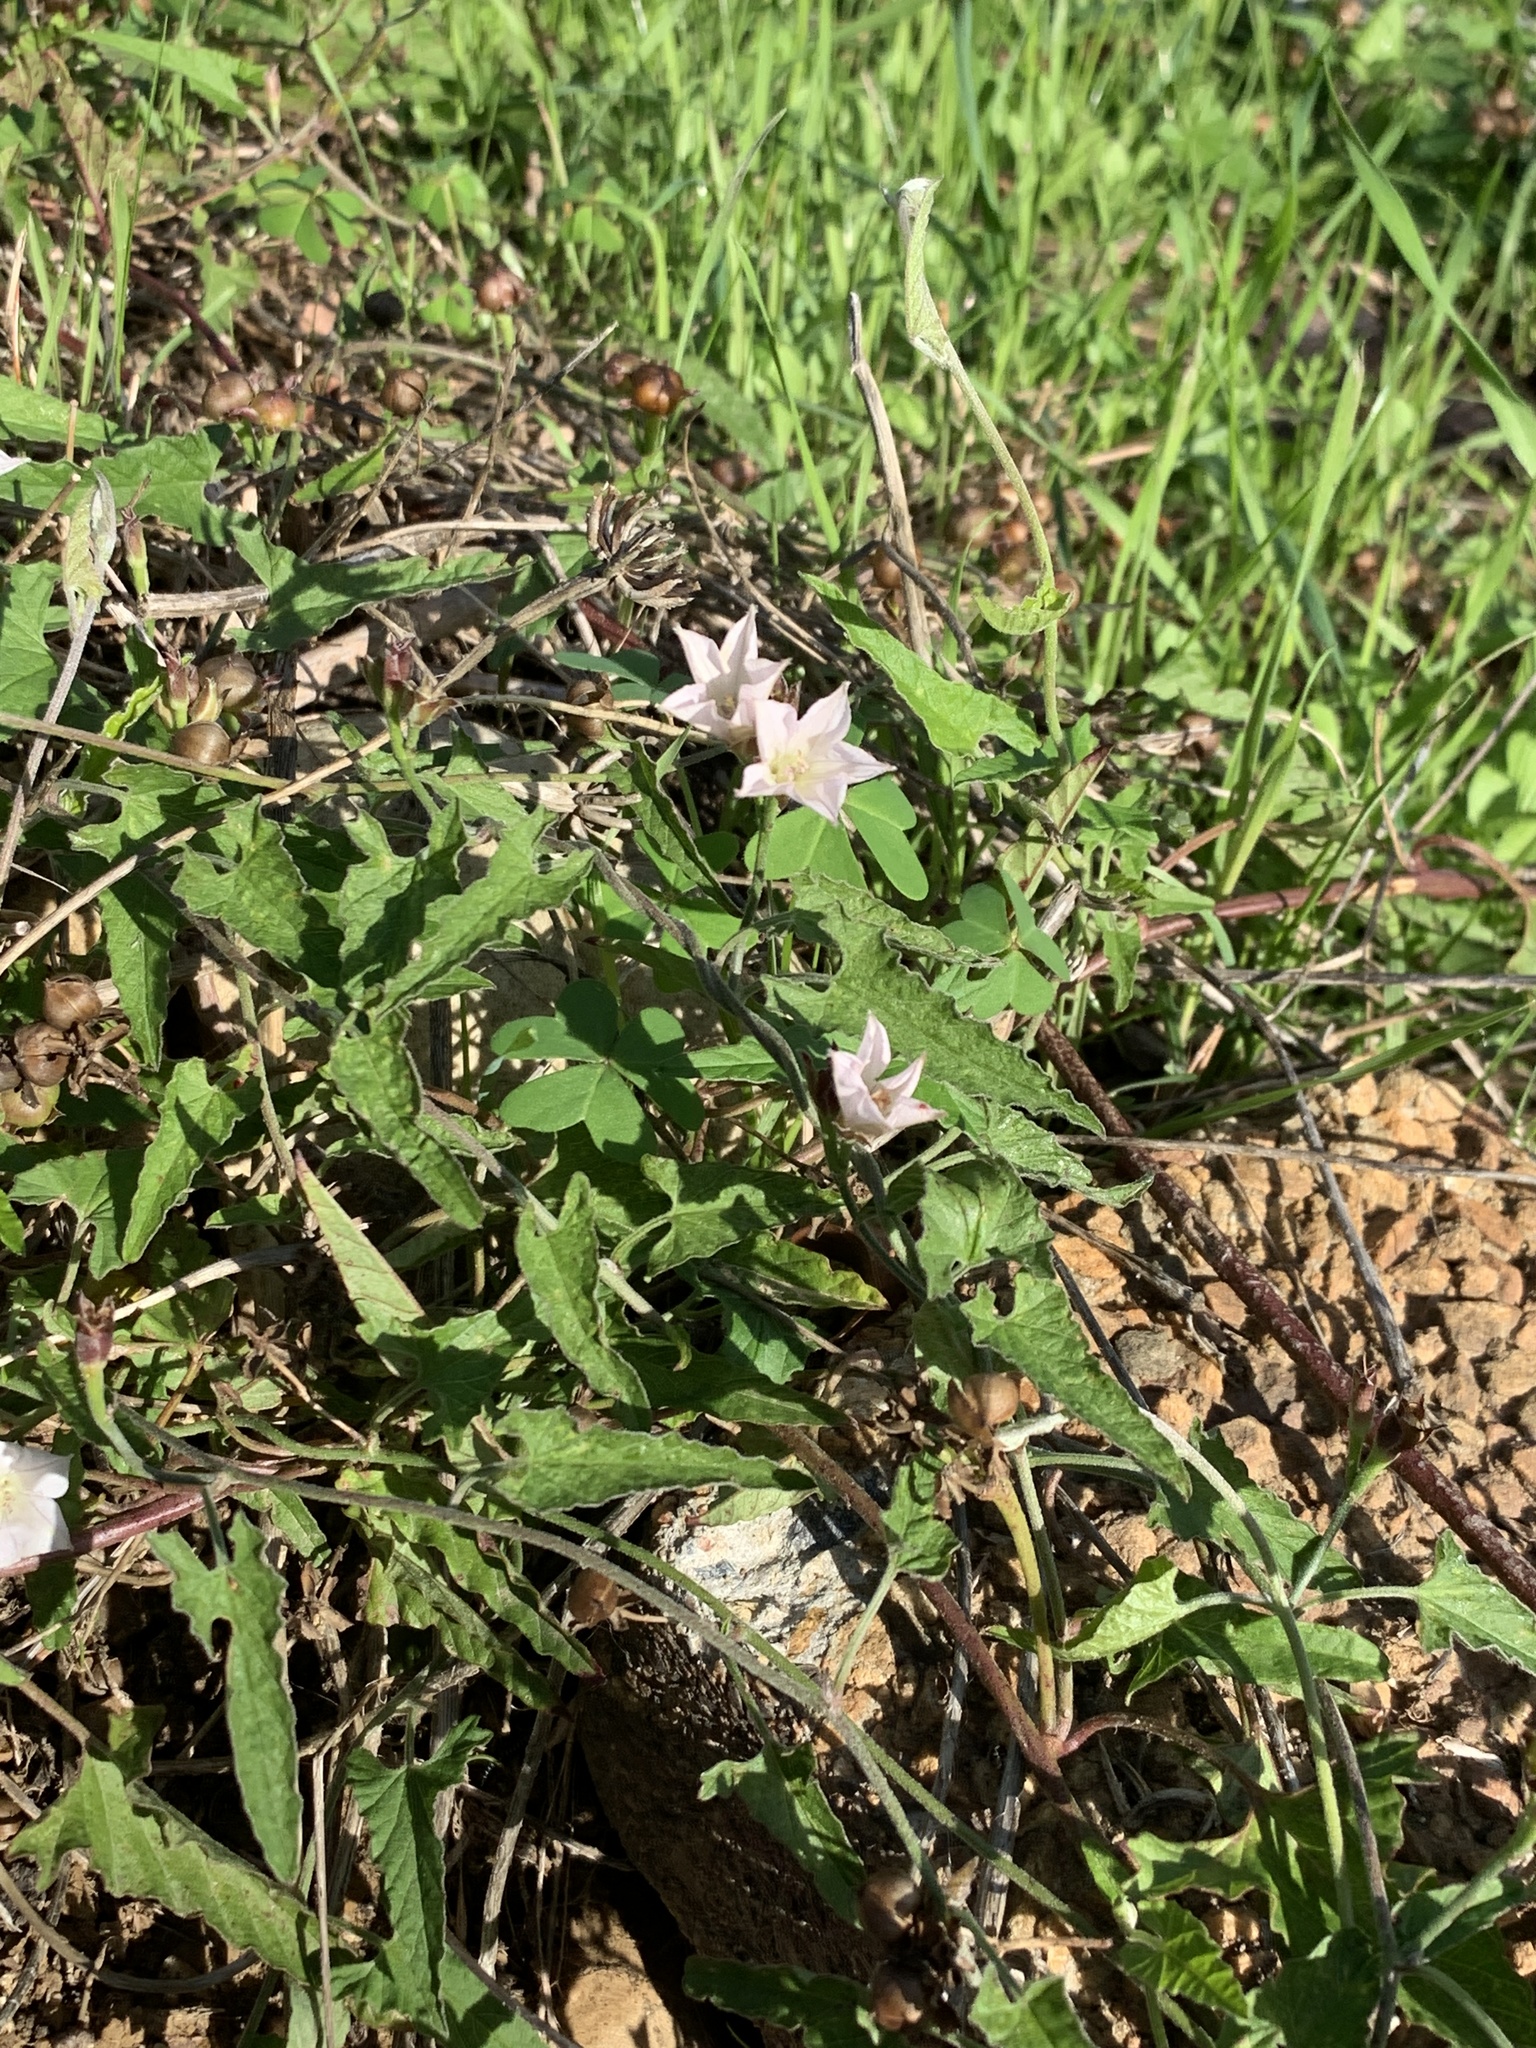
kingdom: Plantae
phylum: Tracheophyta
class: Magnoliopsida
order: Solanales
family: Convolvulaceae
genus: Convolvulus
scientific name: Convolvulus farinosus
